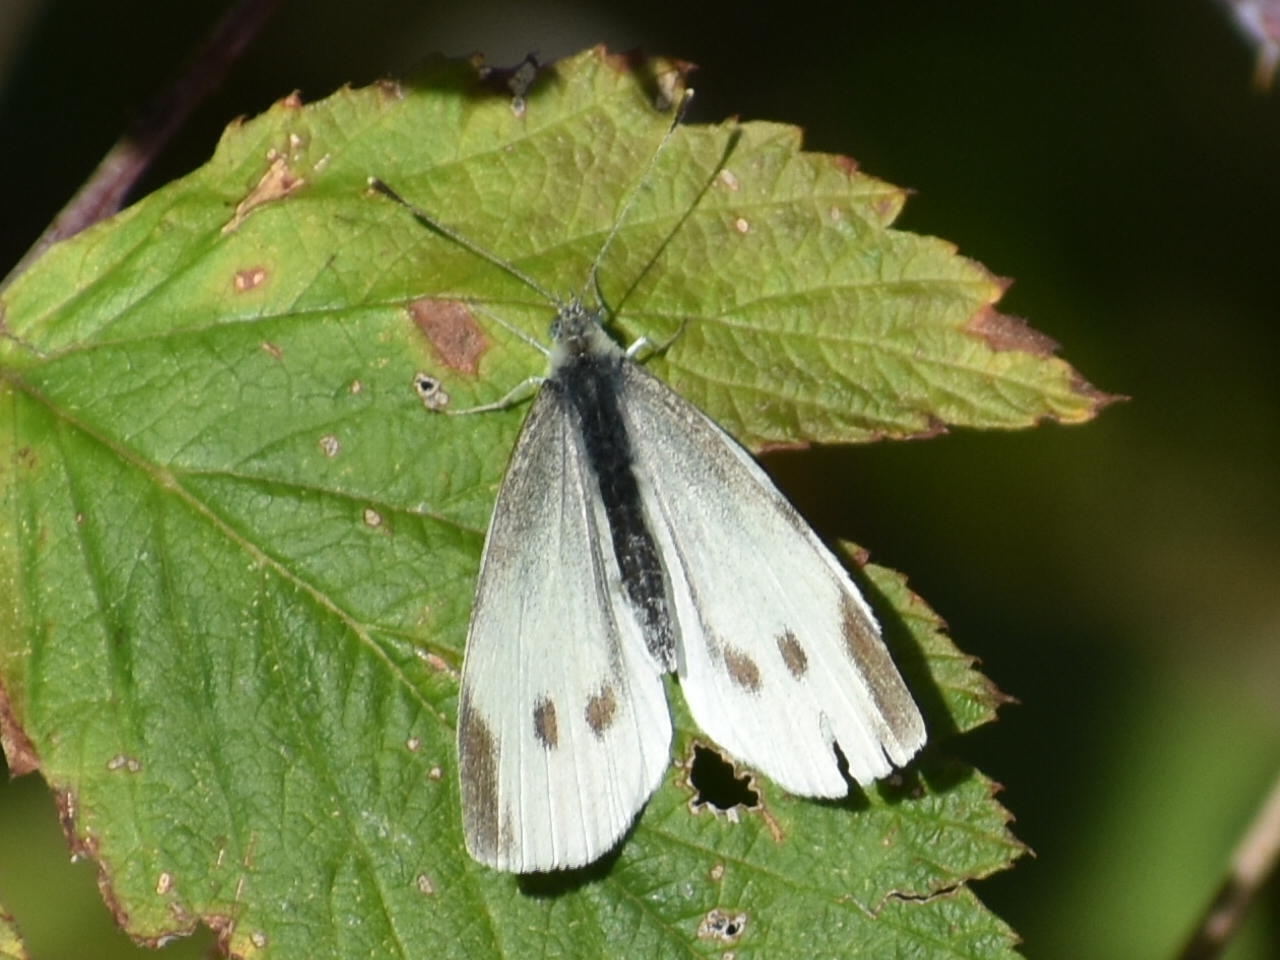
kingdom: Animalia
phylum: Arthropoda
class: Insecta
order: Lepidoptera
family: Pieridae
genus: Pieris
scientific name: Pieris rapae
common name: Small white
